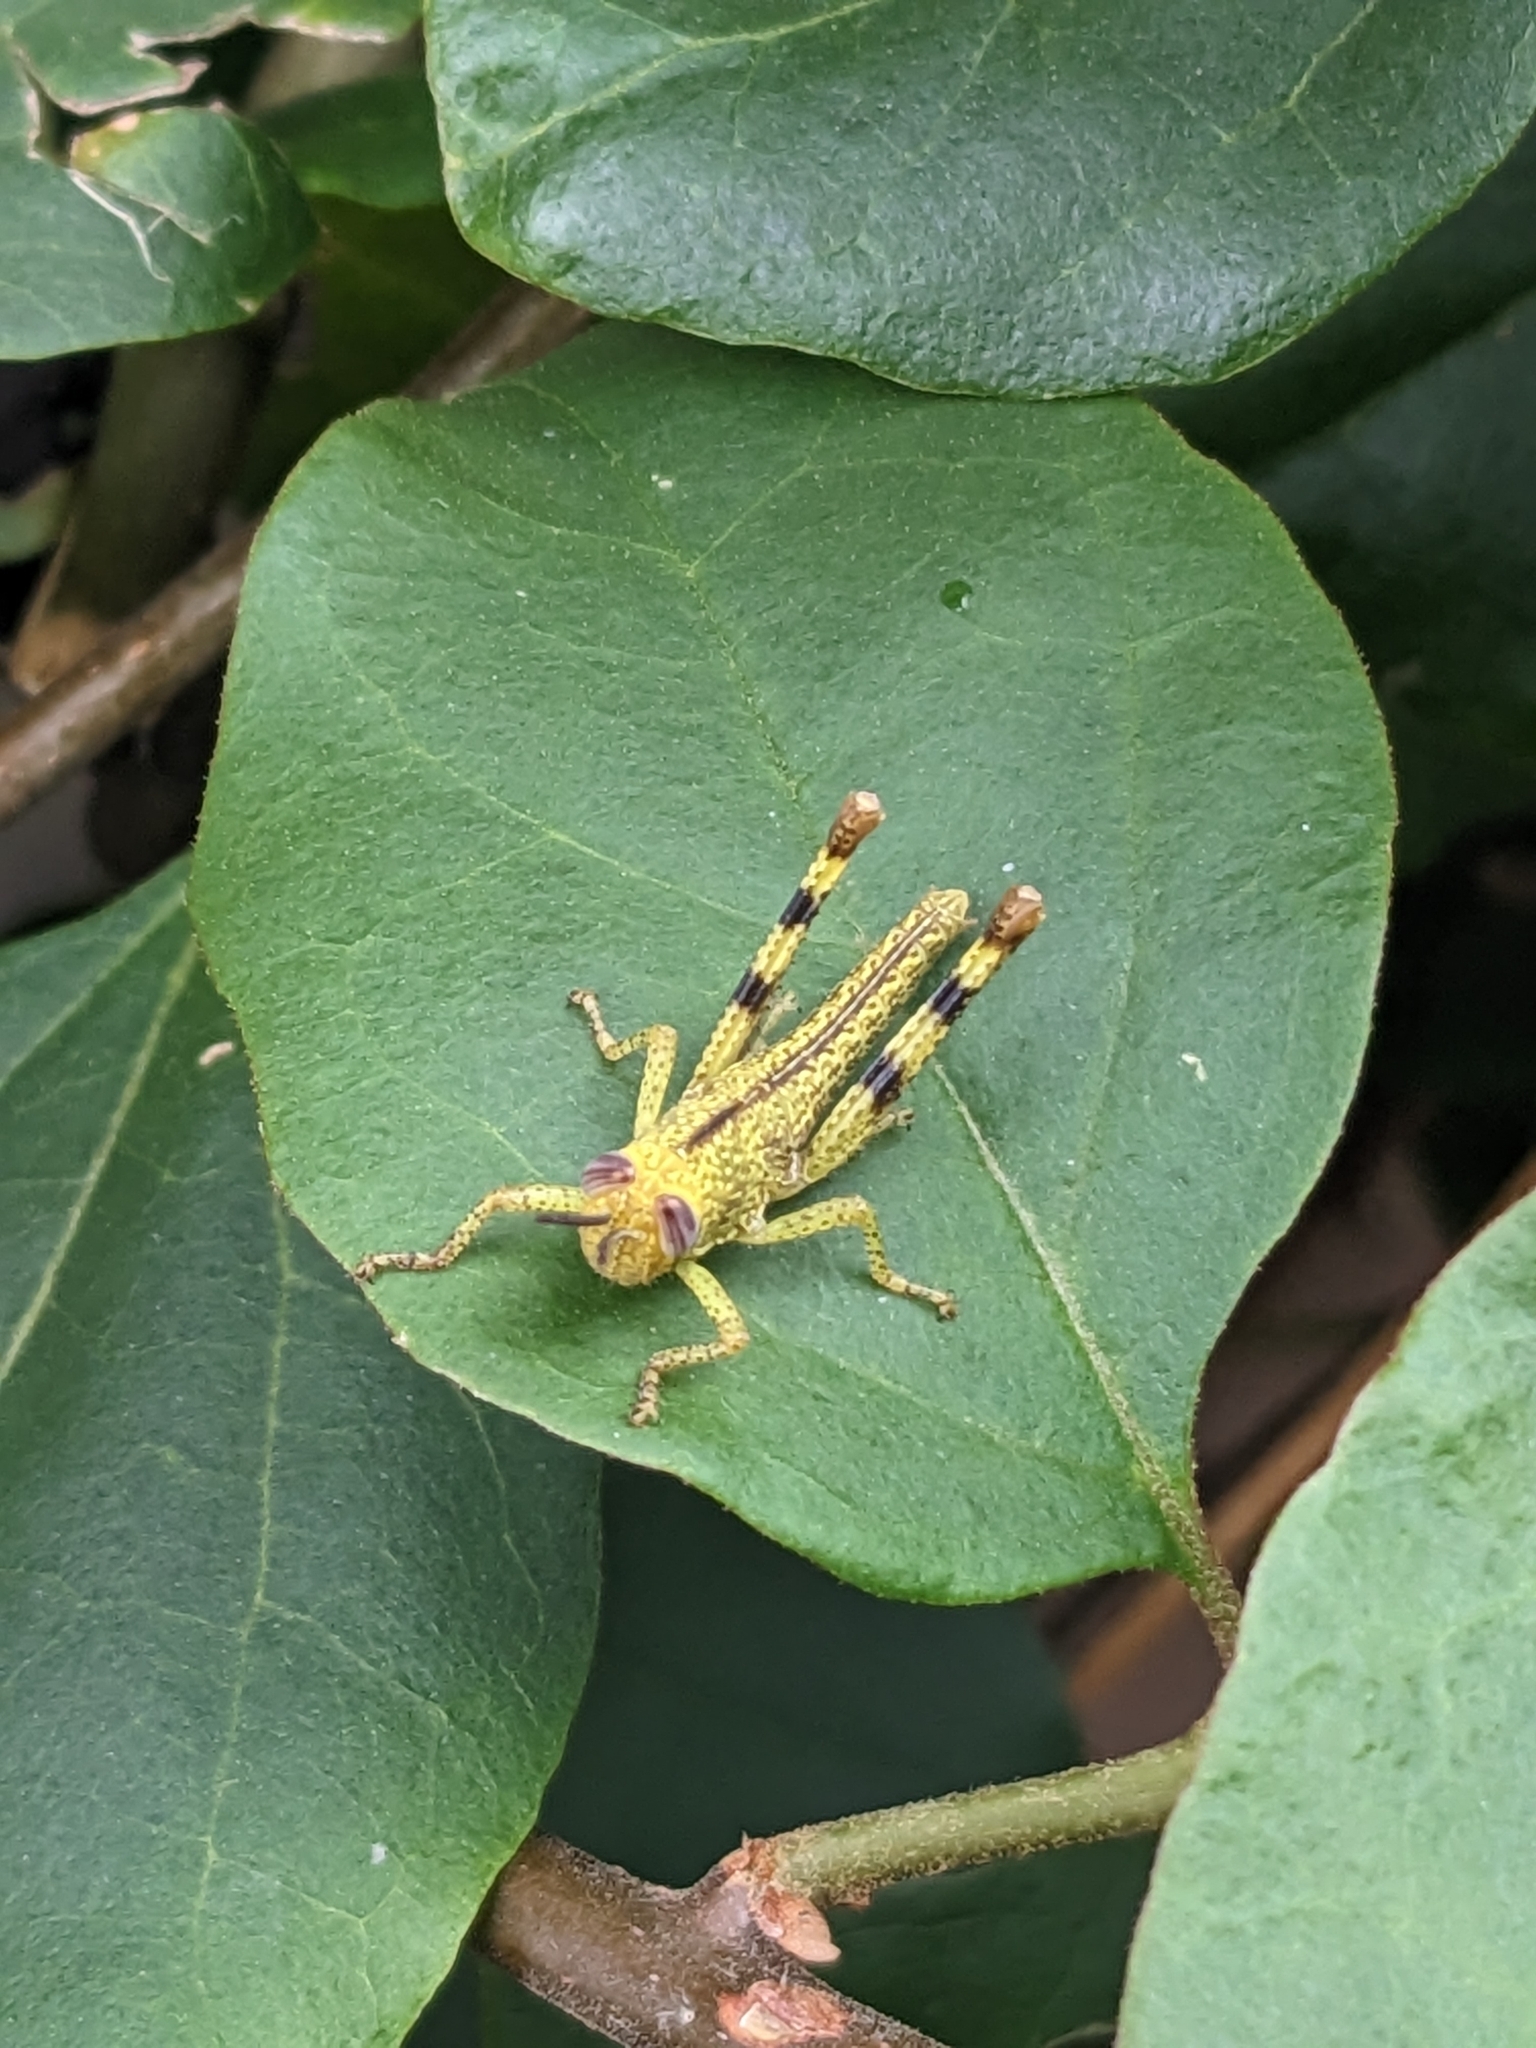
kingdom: Animalia
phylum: Arthropoda
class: Insecta
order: Orthoptera
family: Acrididae
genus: Valanga
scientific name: Valanga irregularis
